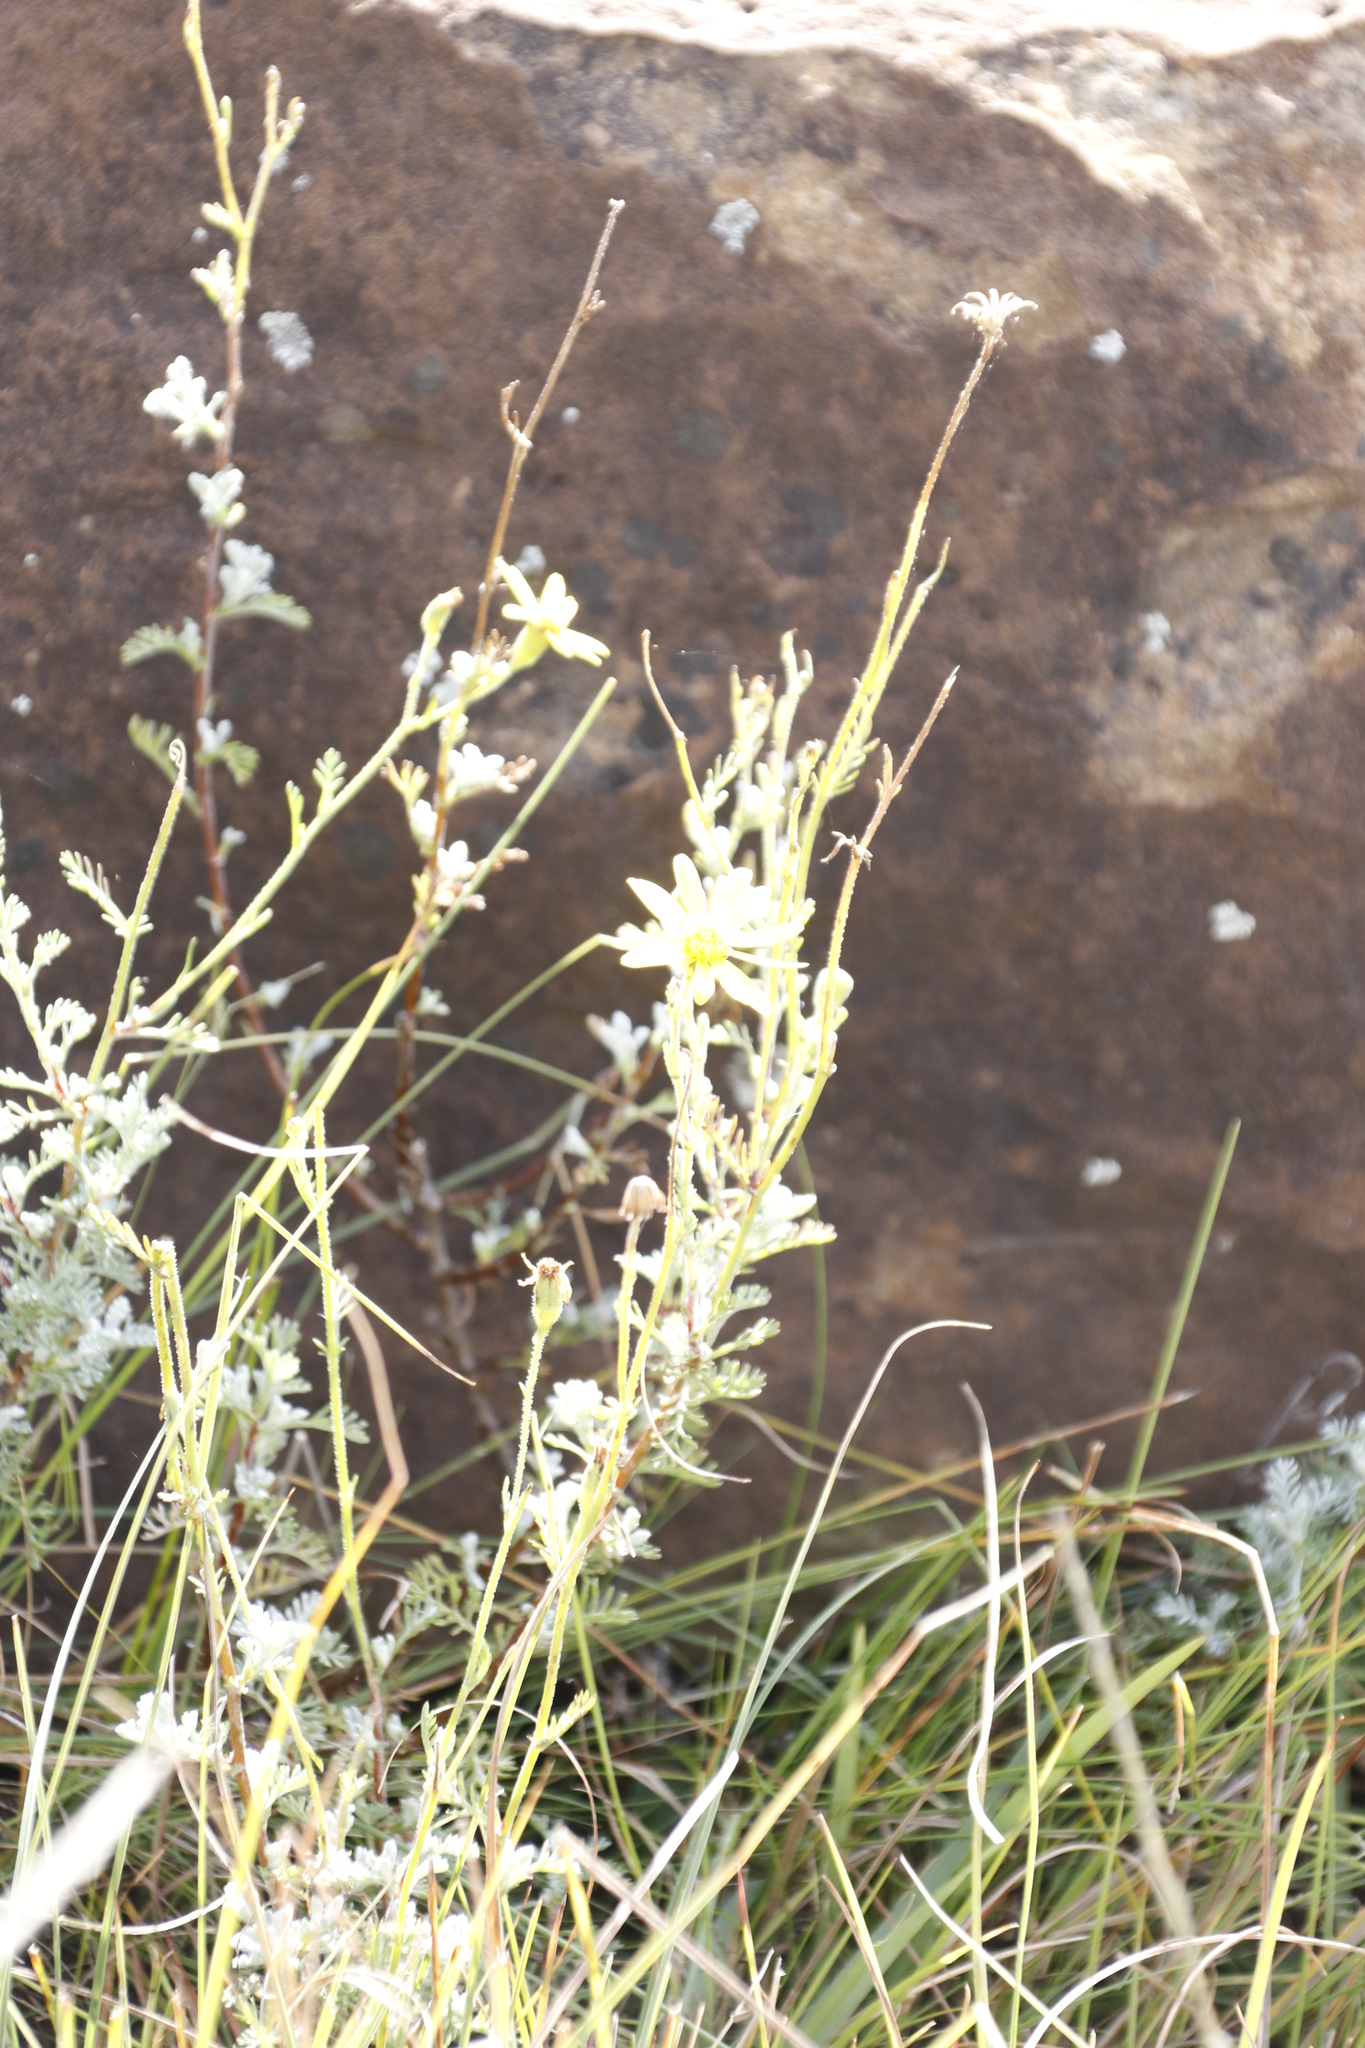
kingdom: Plantae
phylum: Tracheophyta
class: Magnoliopsida
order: Asterales
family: Asteraceae
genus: Senecio
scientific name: Senecio seminiveus
